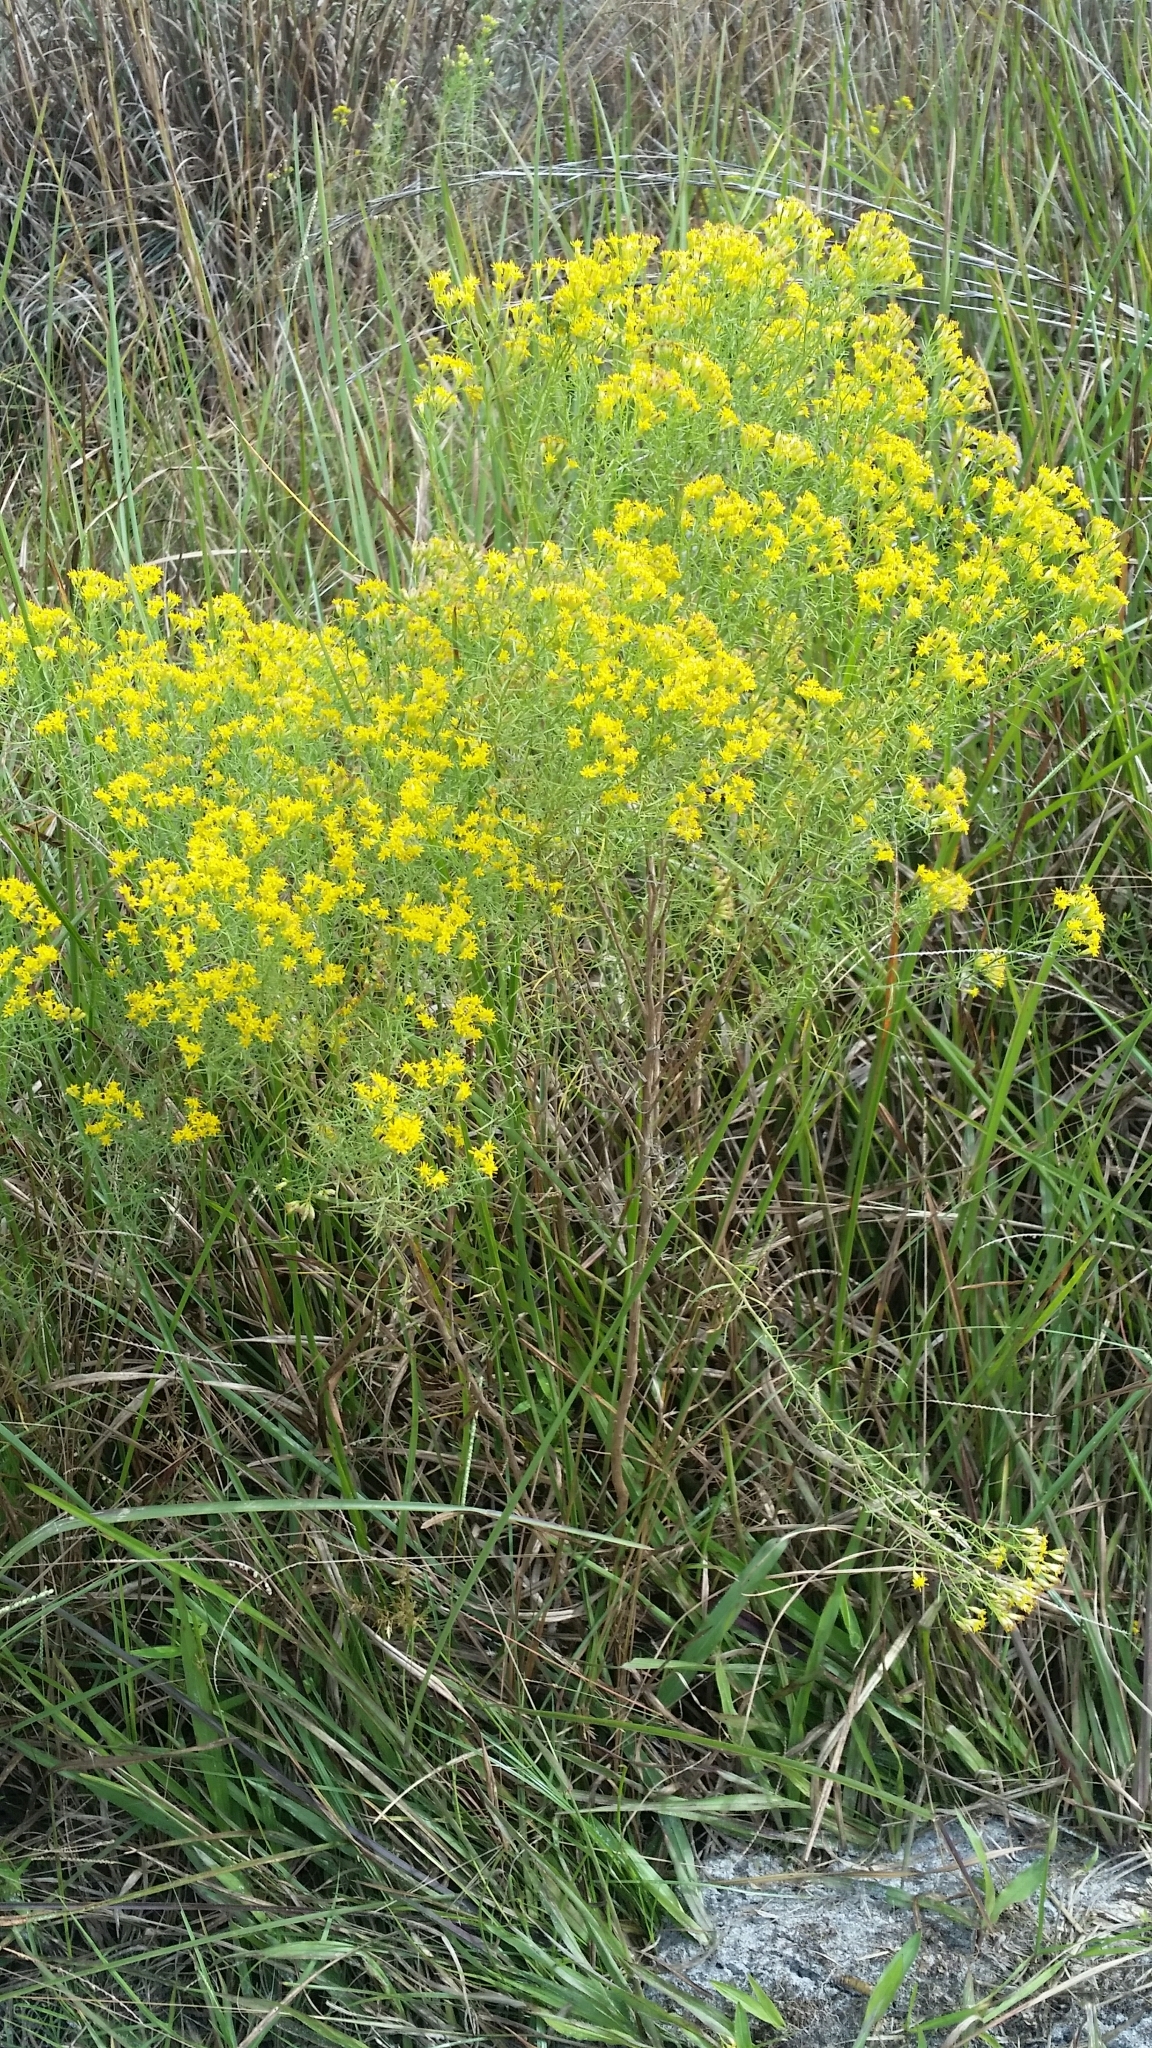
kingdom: Plantae
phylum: Tracheophyta
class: Magnoliopsida
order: Asterales
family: Asteraceae
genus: Euthamia
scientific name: Euthamia caroliniana
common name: Coastal plain goldentop
